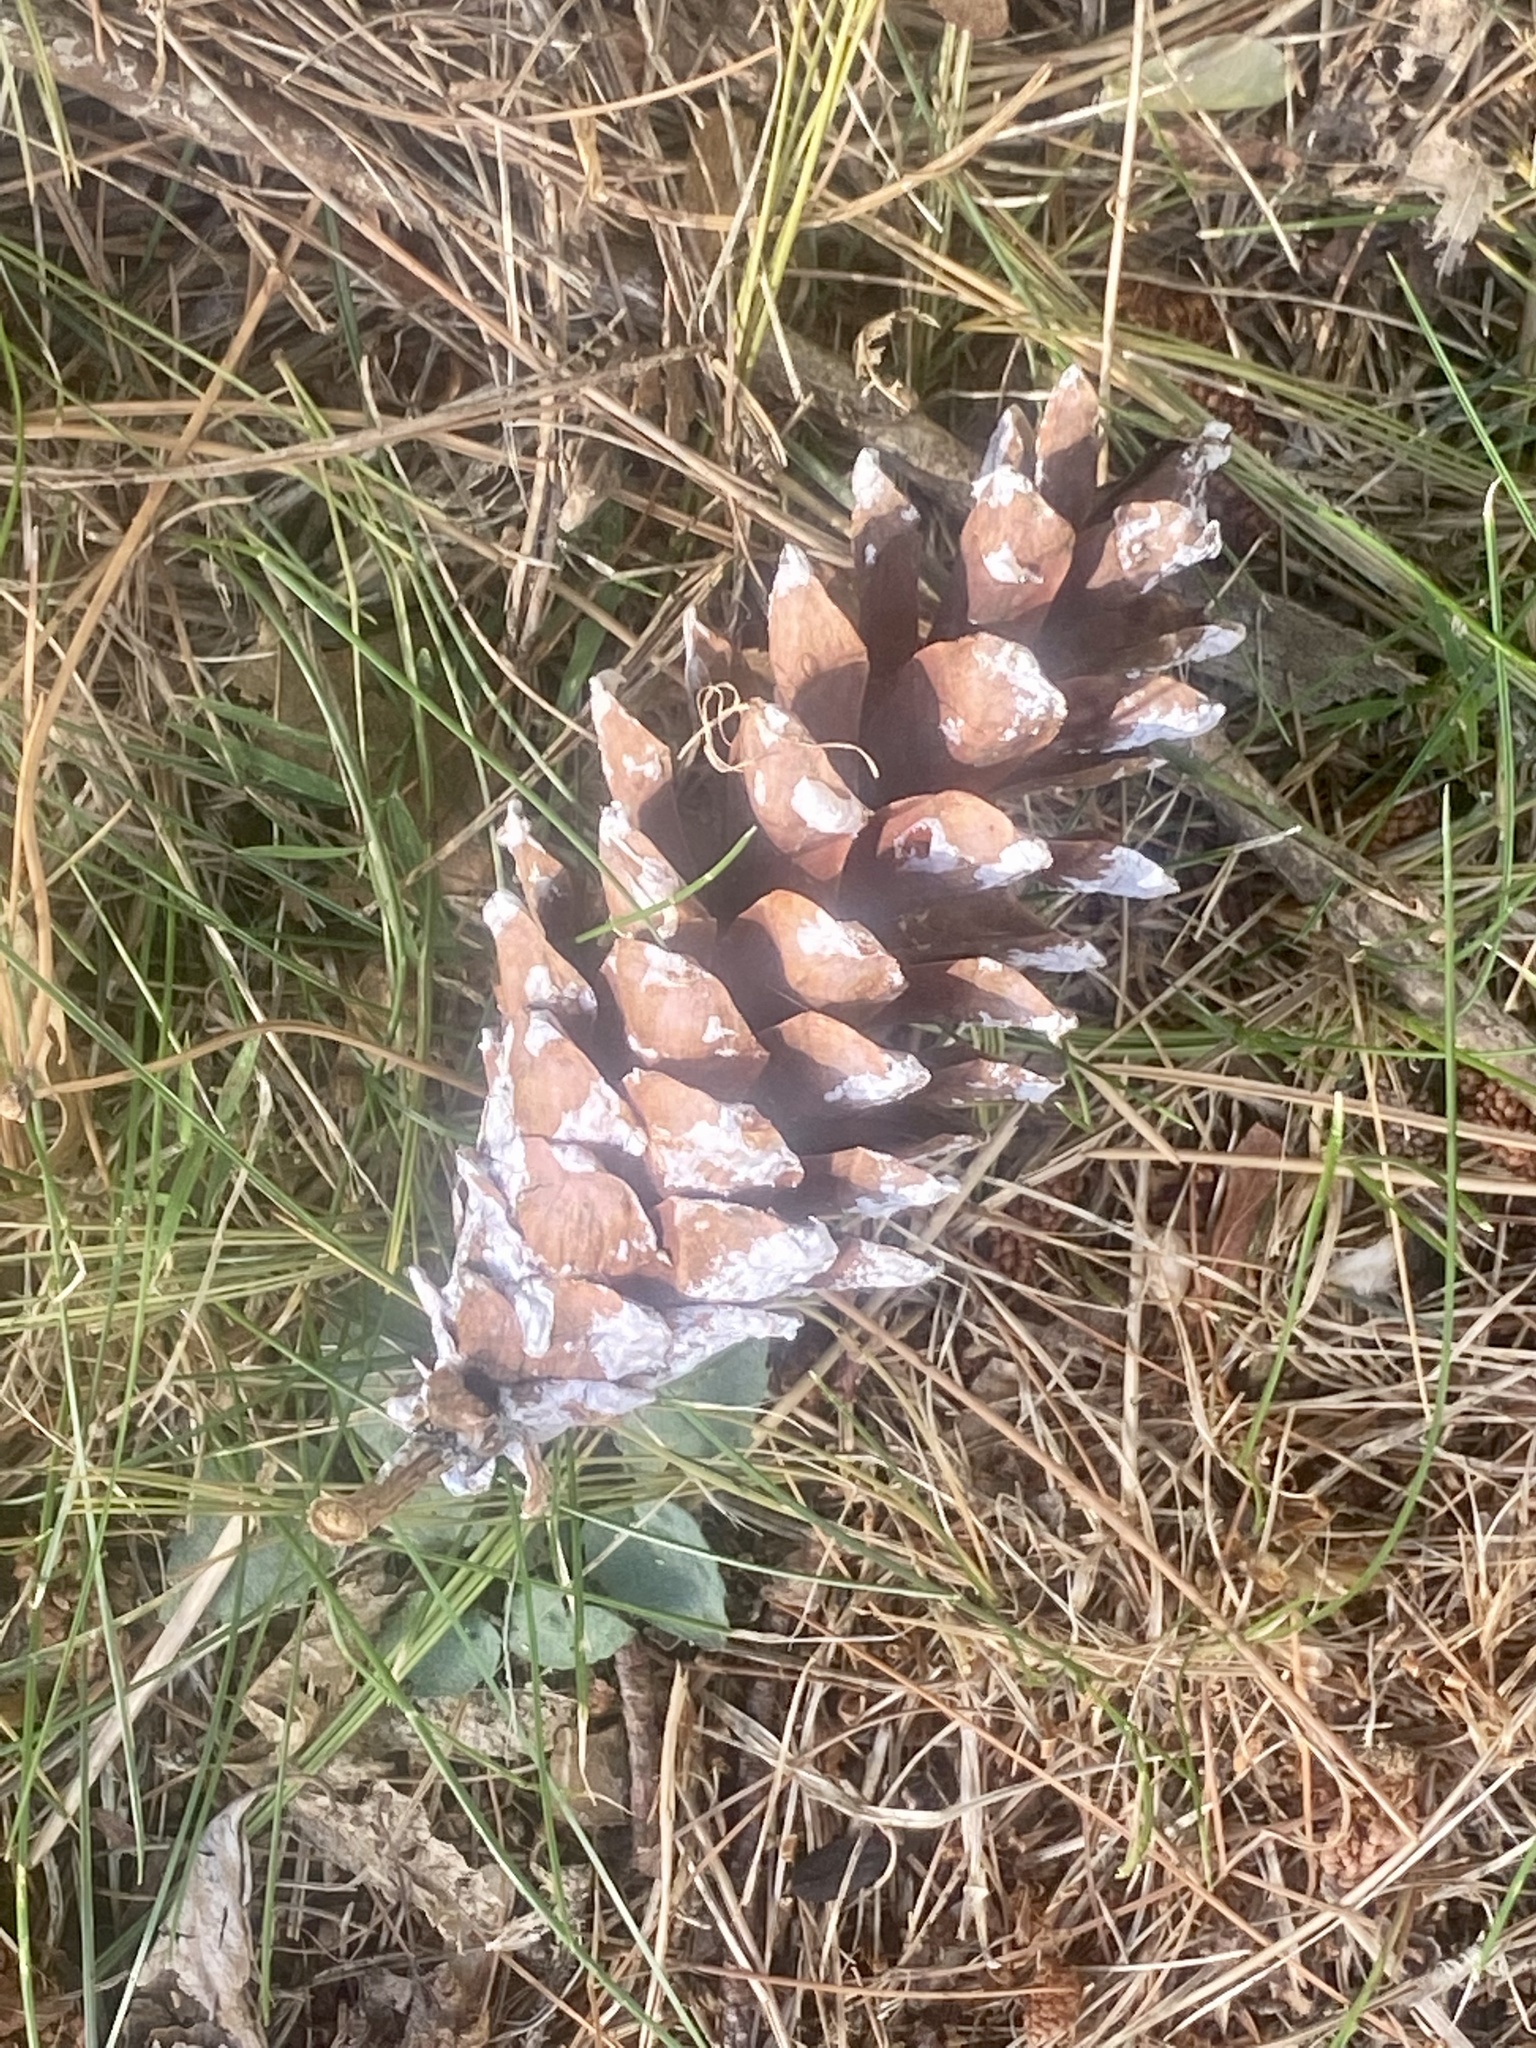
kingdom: Plantae
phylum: Tracheophyta
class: Pinopsida
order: Pinales
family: Pinaceae
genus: Pinus
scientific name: Pinus strobus
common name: Weymouth pine
